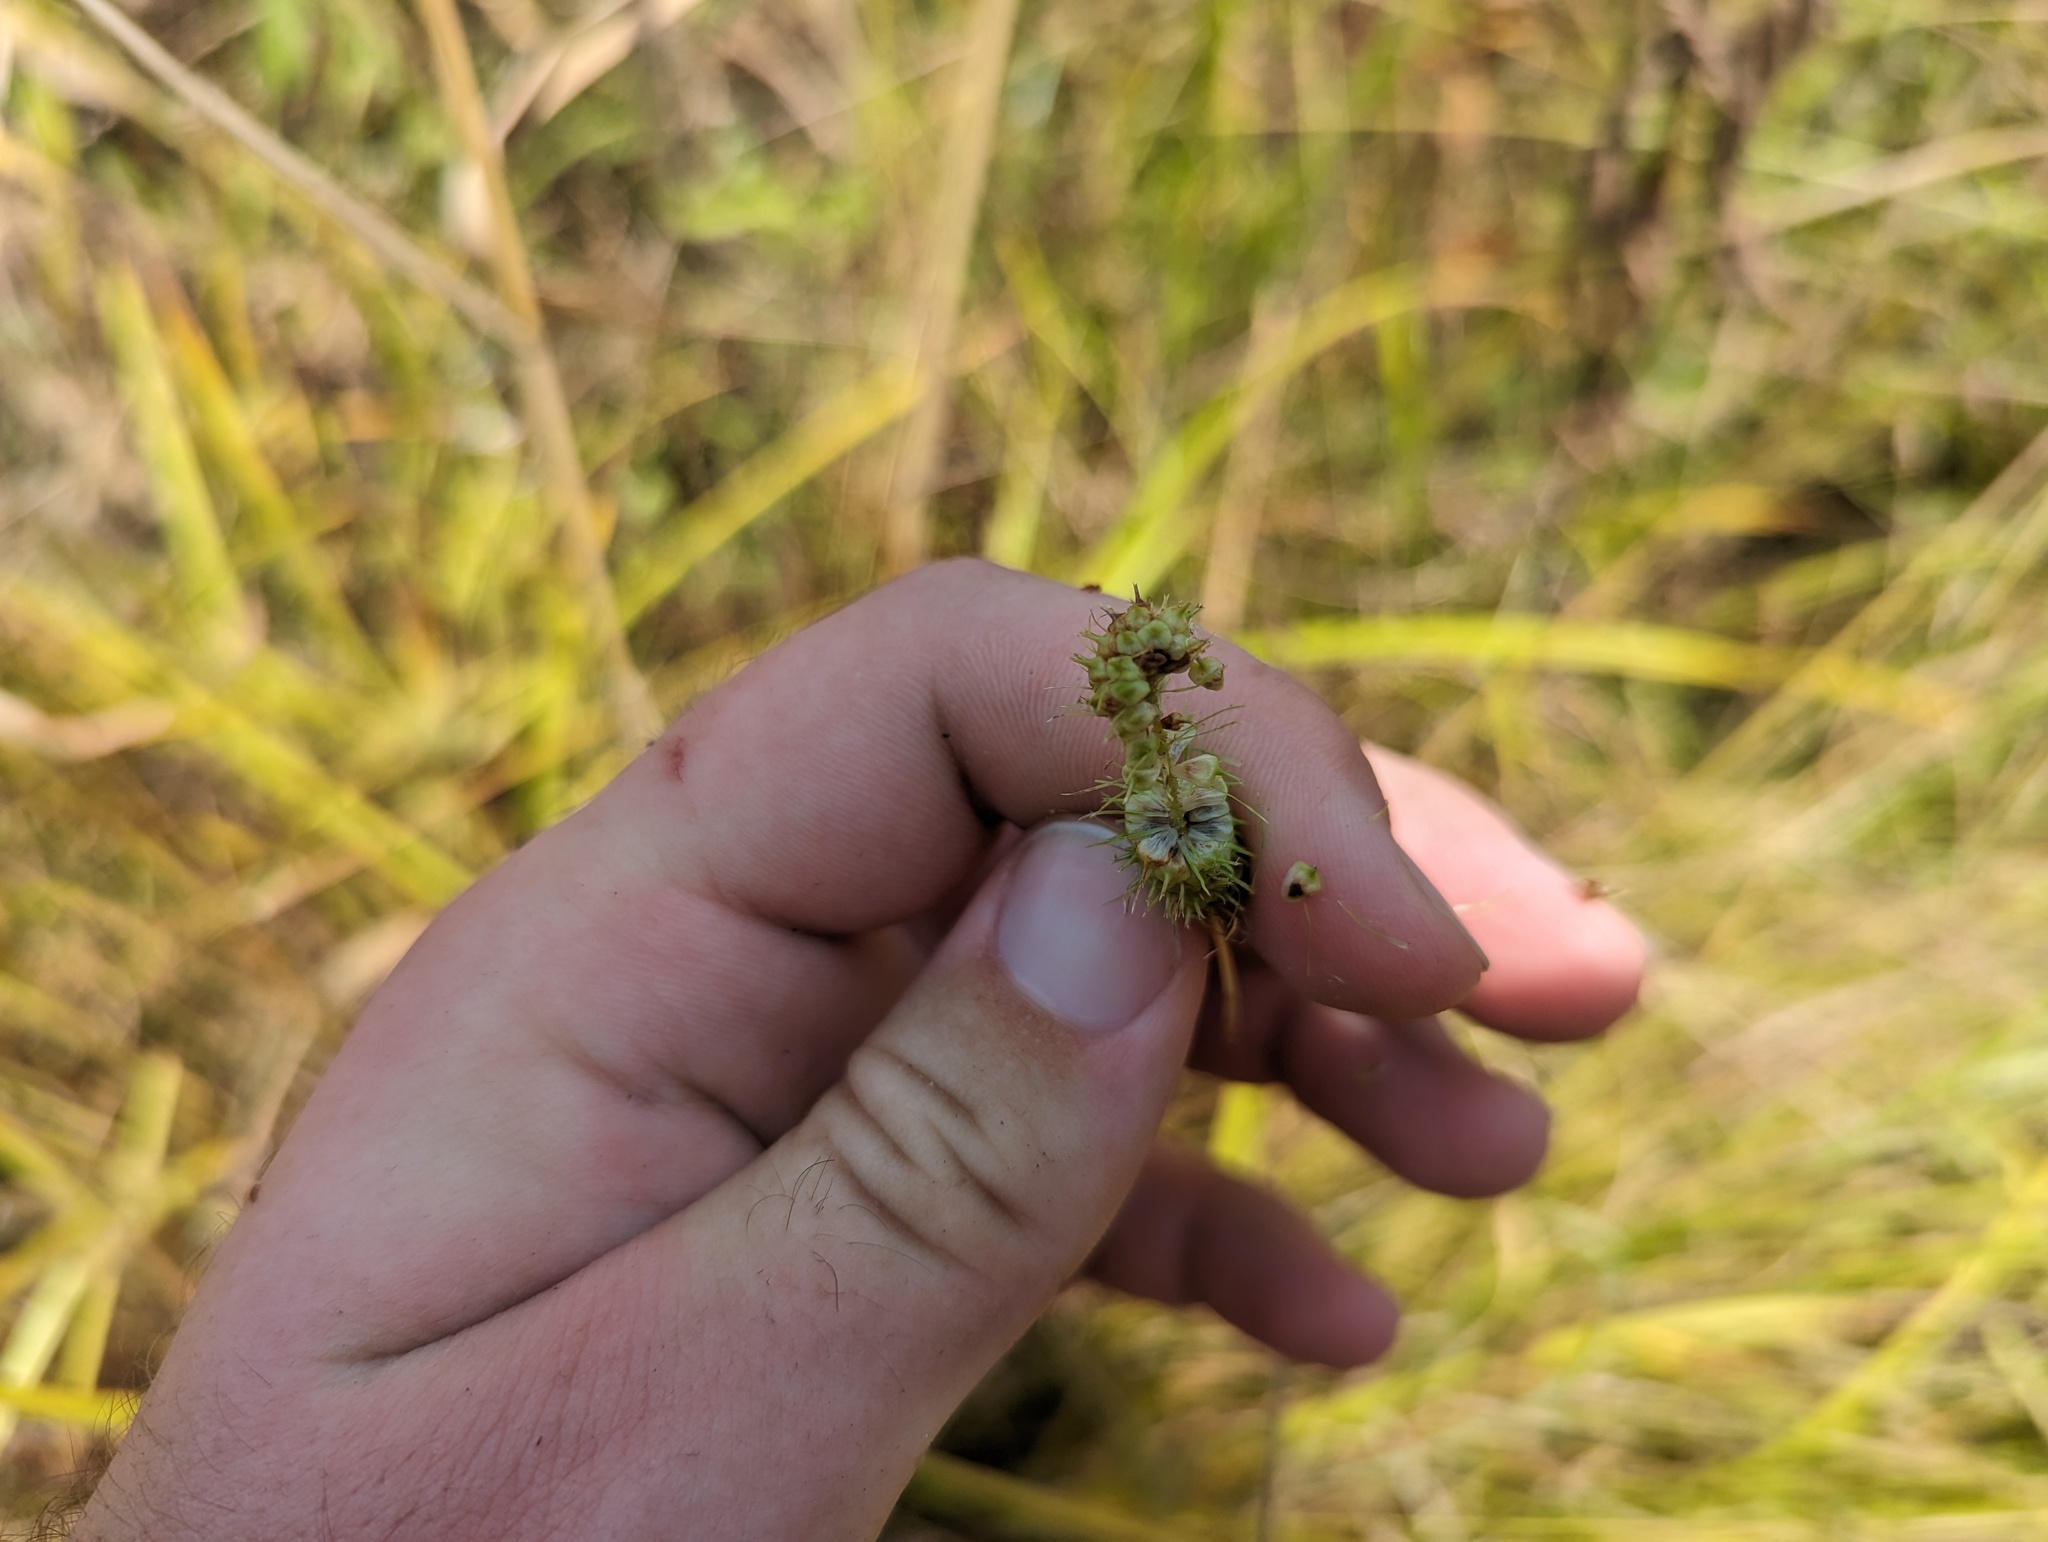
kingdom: Plantae
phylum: Tracheophyta
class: Liliopsida
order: Poales
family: Cyperaceae
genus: Carex
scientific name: Carex frankii
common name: Frank's sedge
